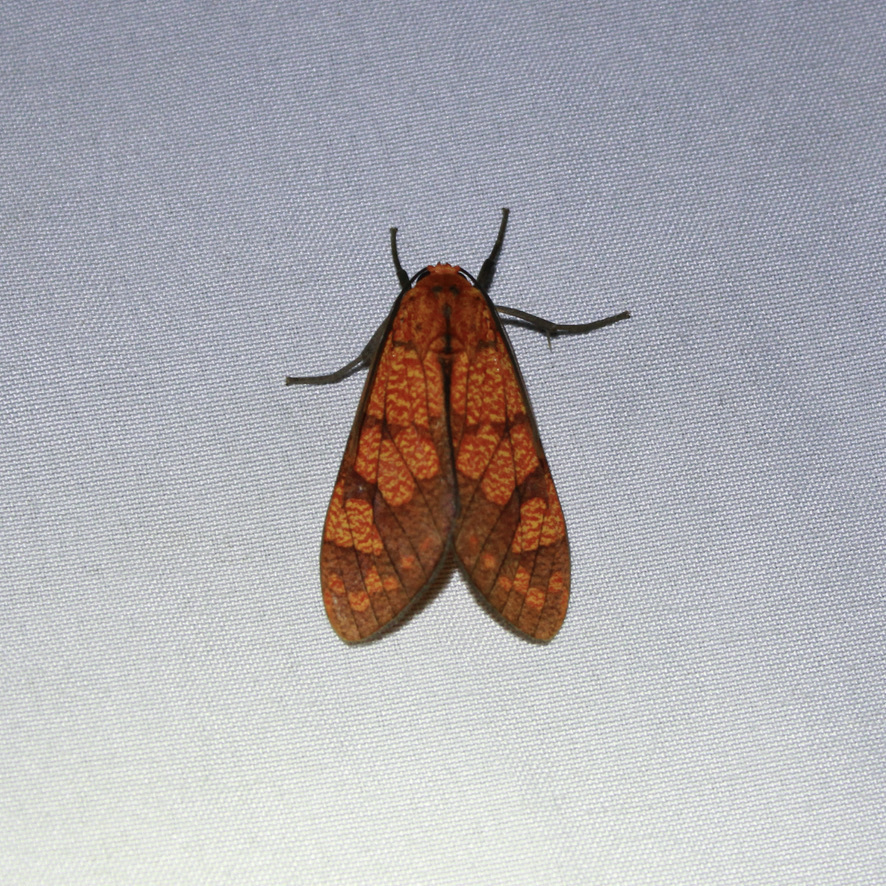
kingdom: Animalia
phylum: Arthropoda
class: Insecta
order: Lepidoptera
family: Erebidae
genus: Elysius
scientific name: Elysius conspersus
